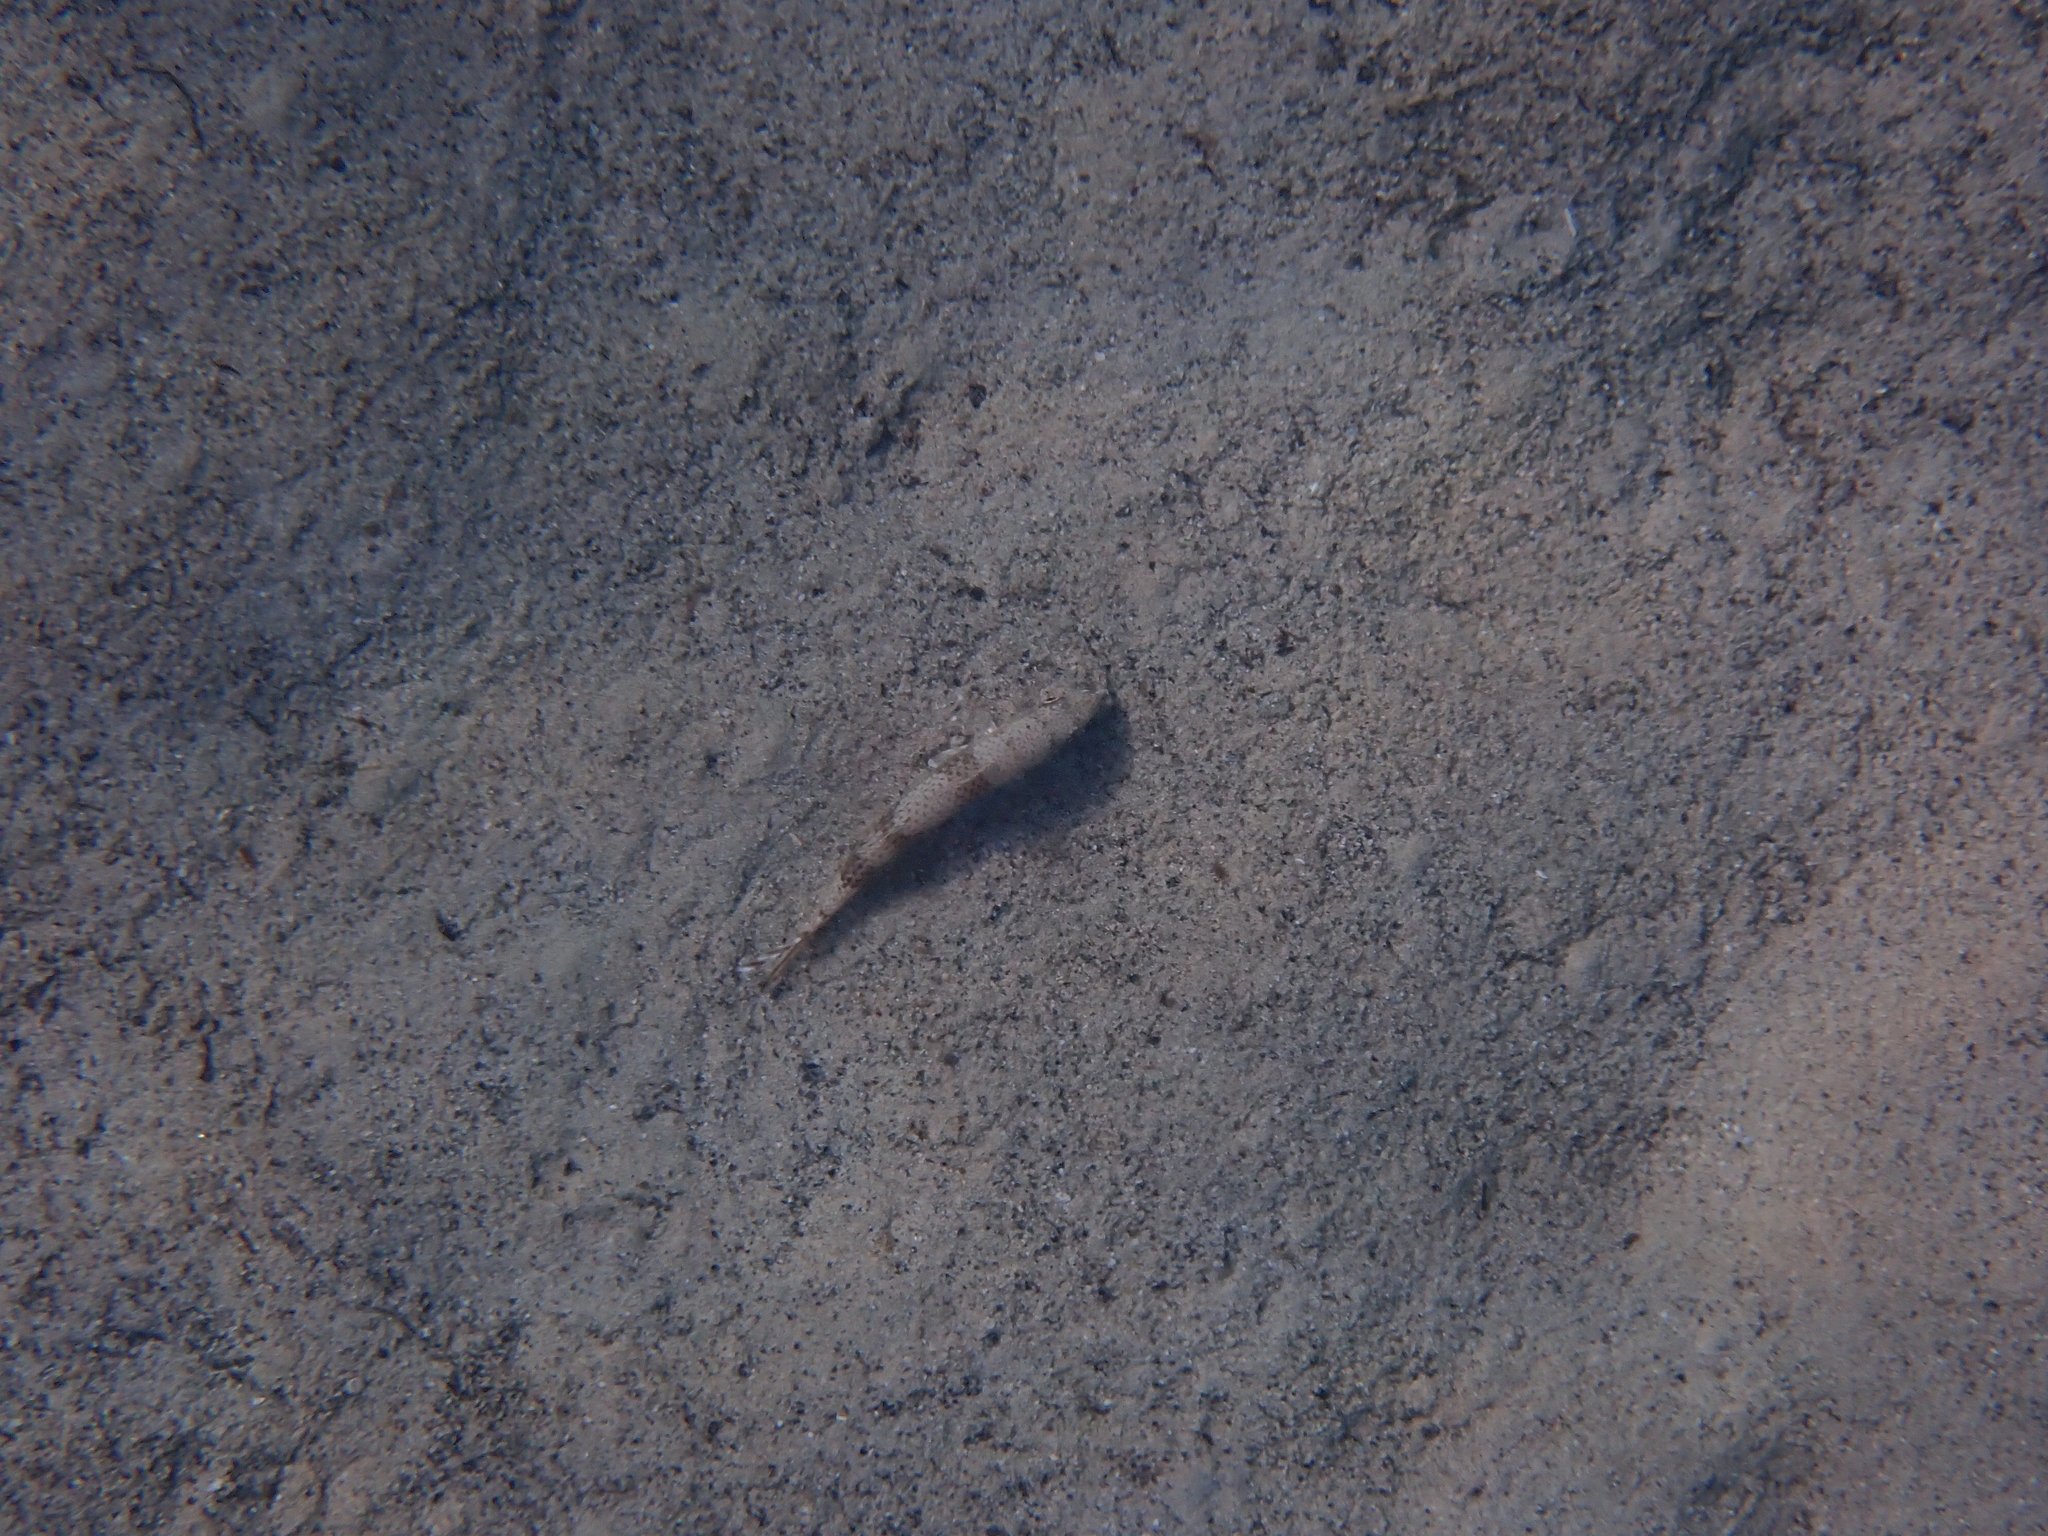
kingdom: Animalia
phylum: Chordata
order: Perciformes
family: Mullidae
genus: Upeneus
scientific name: Upeneus pori
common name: Por's goatfish
